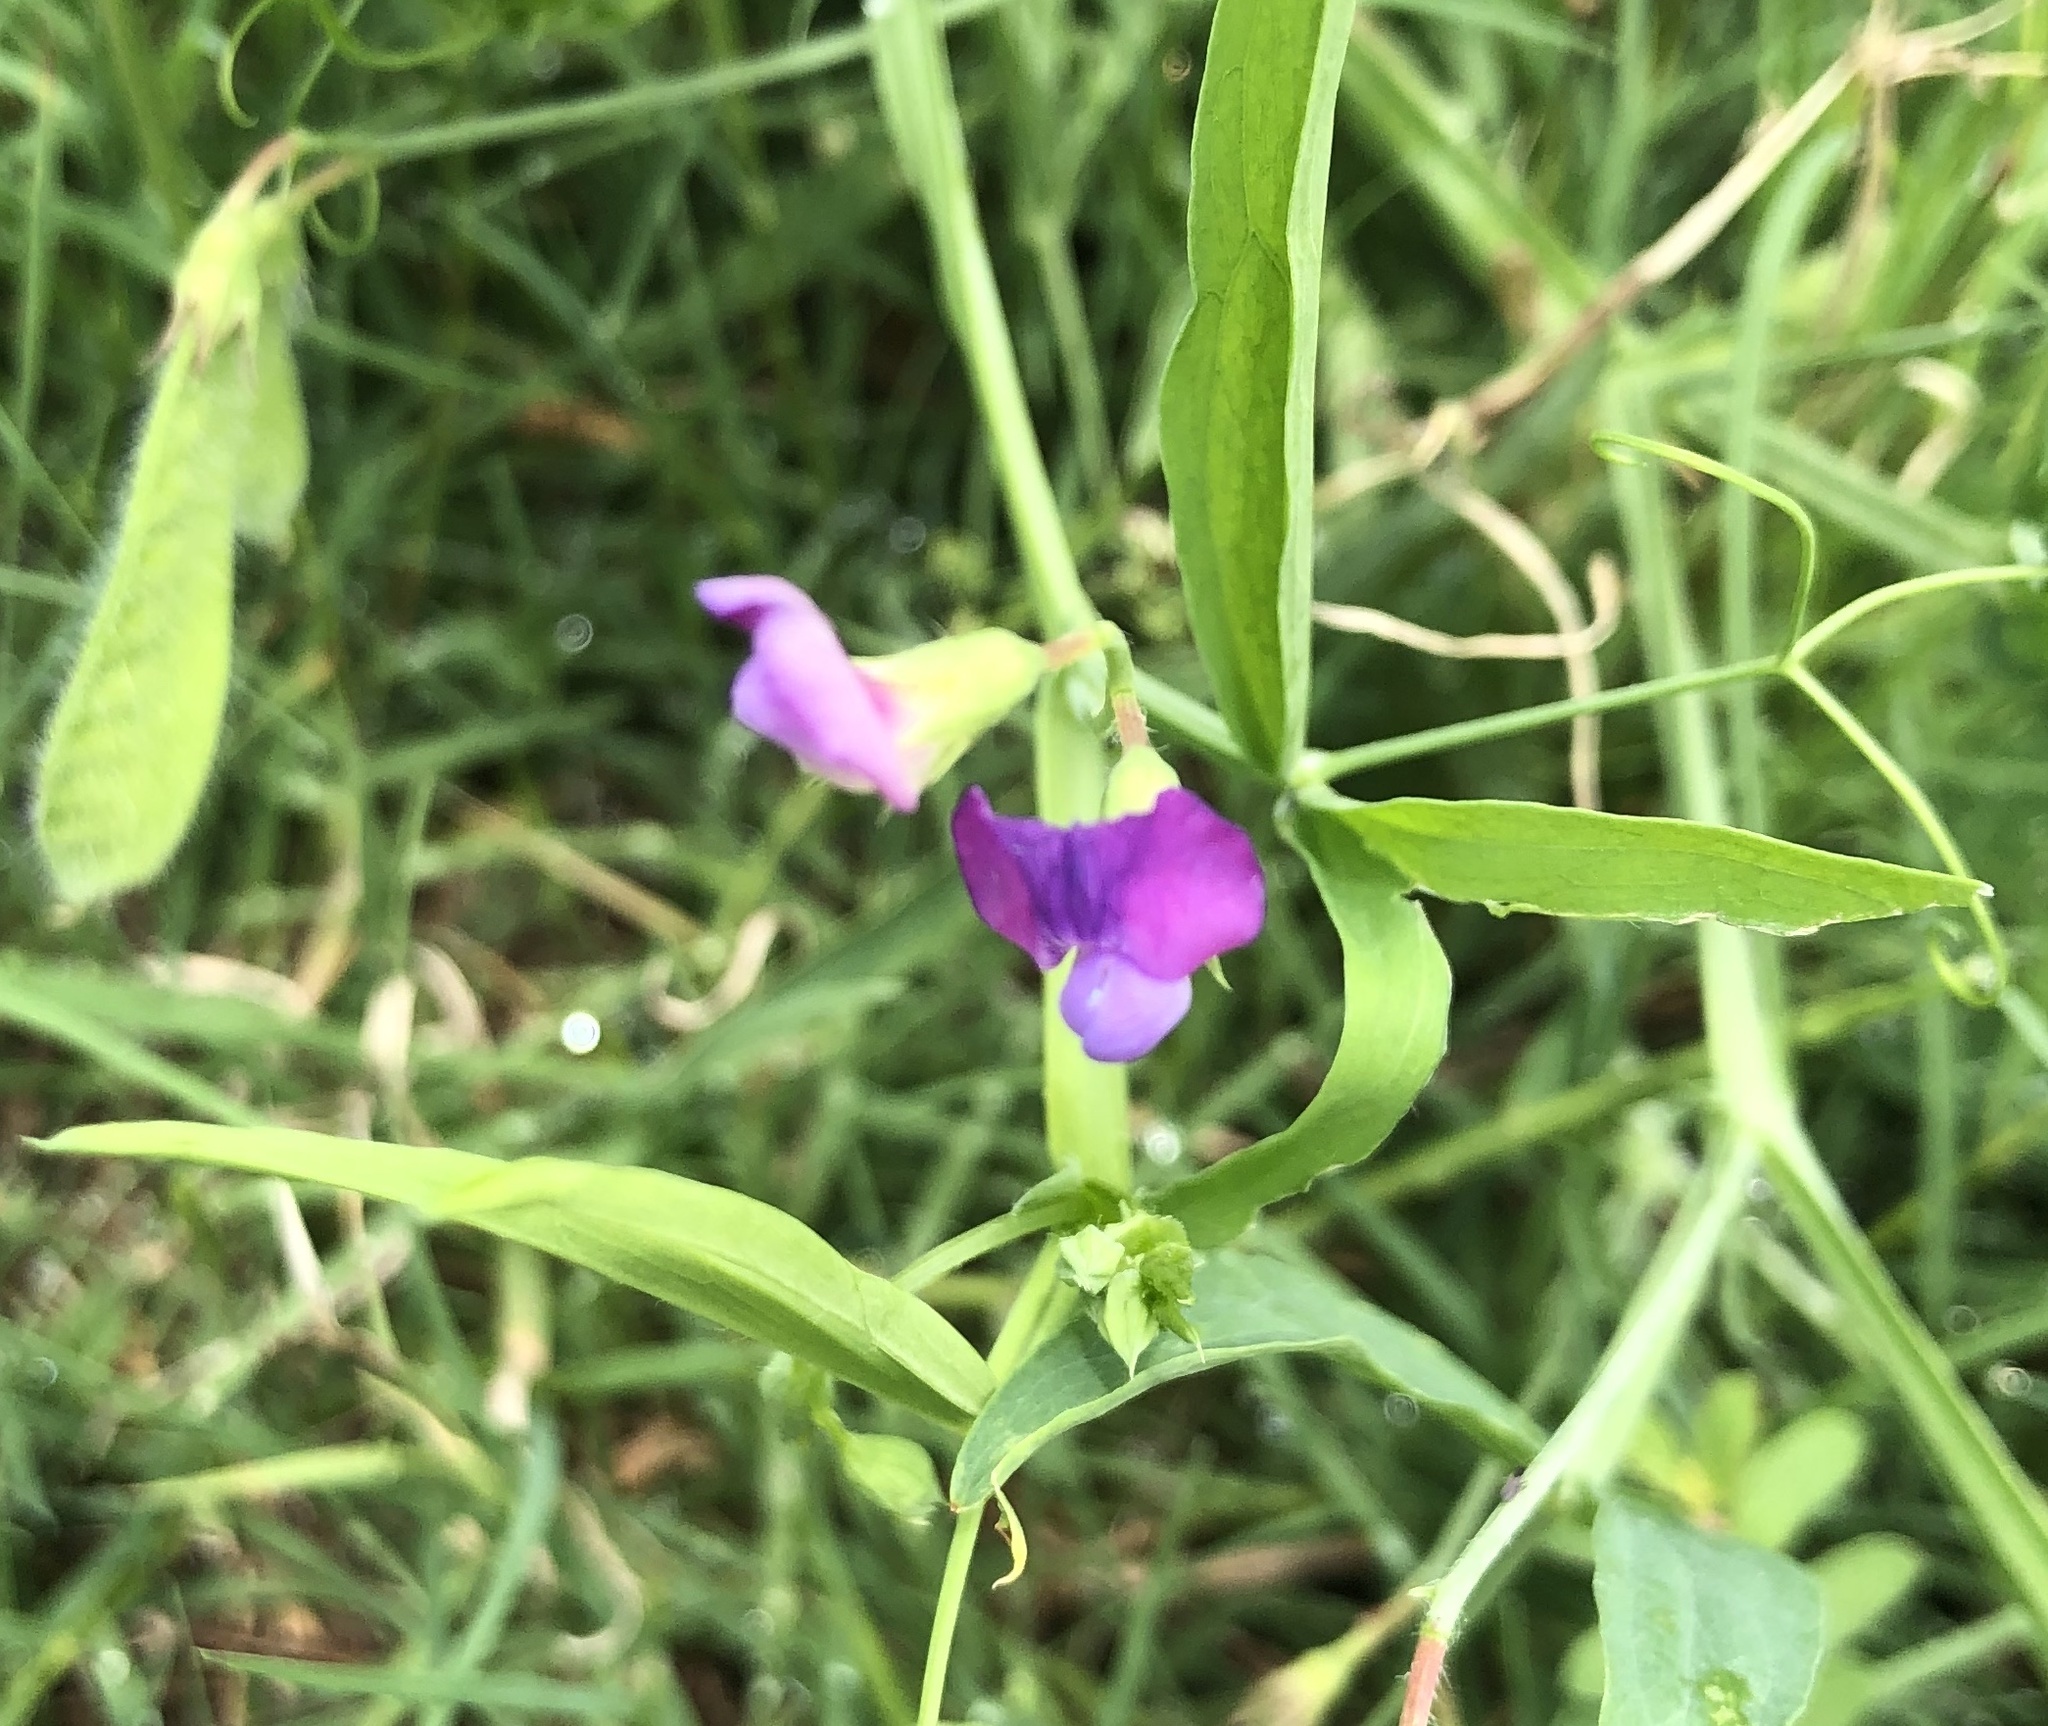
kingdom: Plantae
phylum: Tracheophyta
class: Magnoliopsida
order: Fabales
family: Fabaceae
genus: Lathyrus
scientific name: Lathyrus hirsutus
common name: Hairy vetchling
